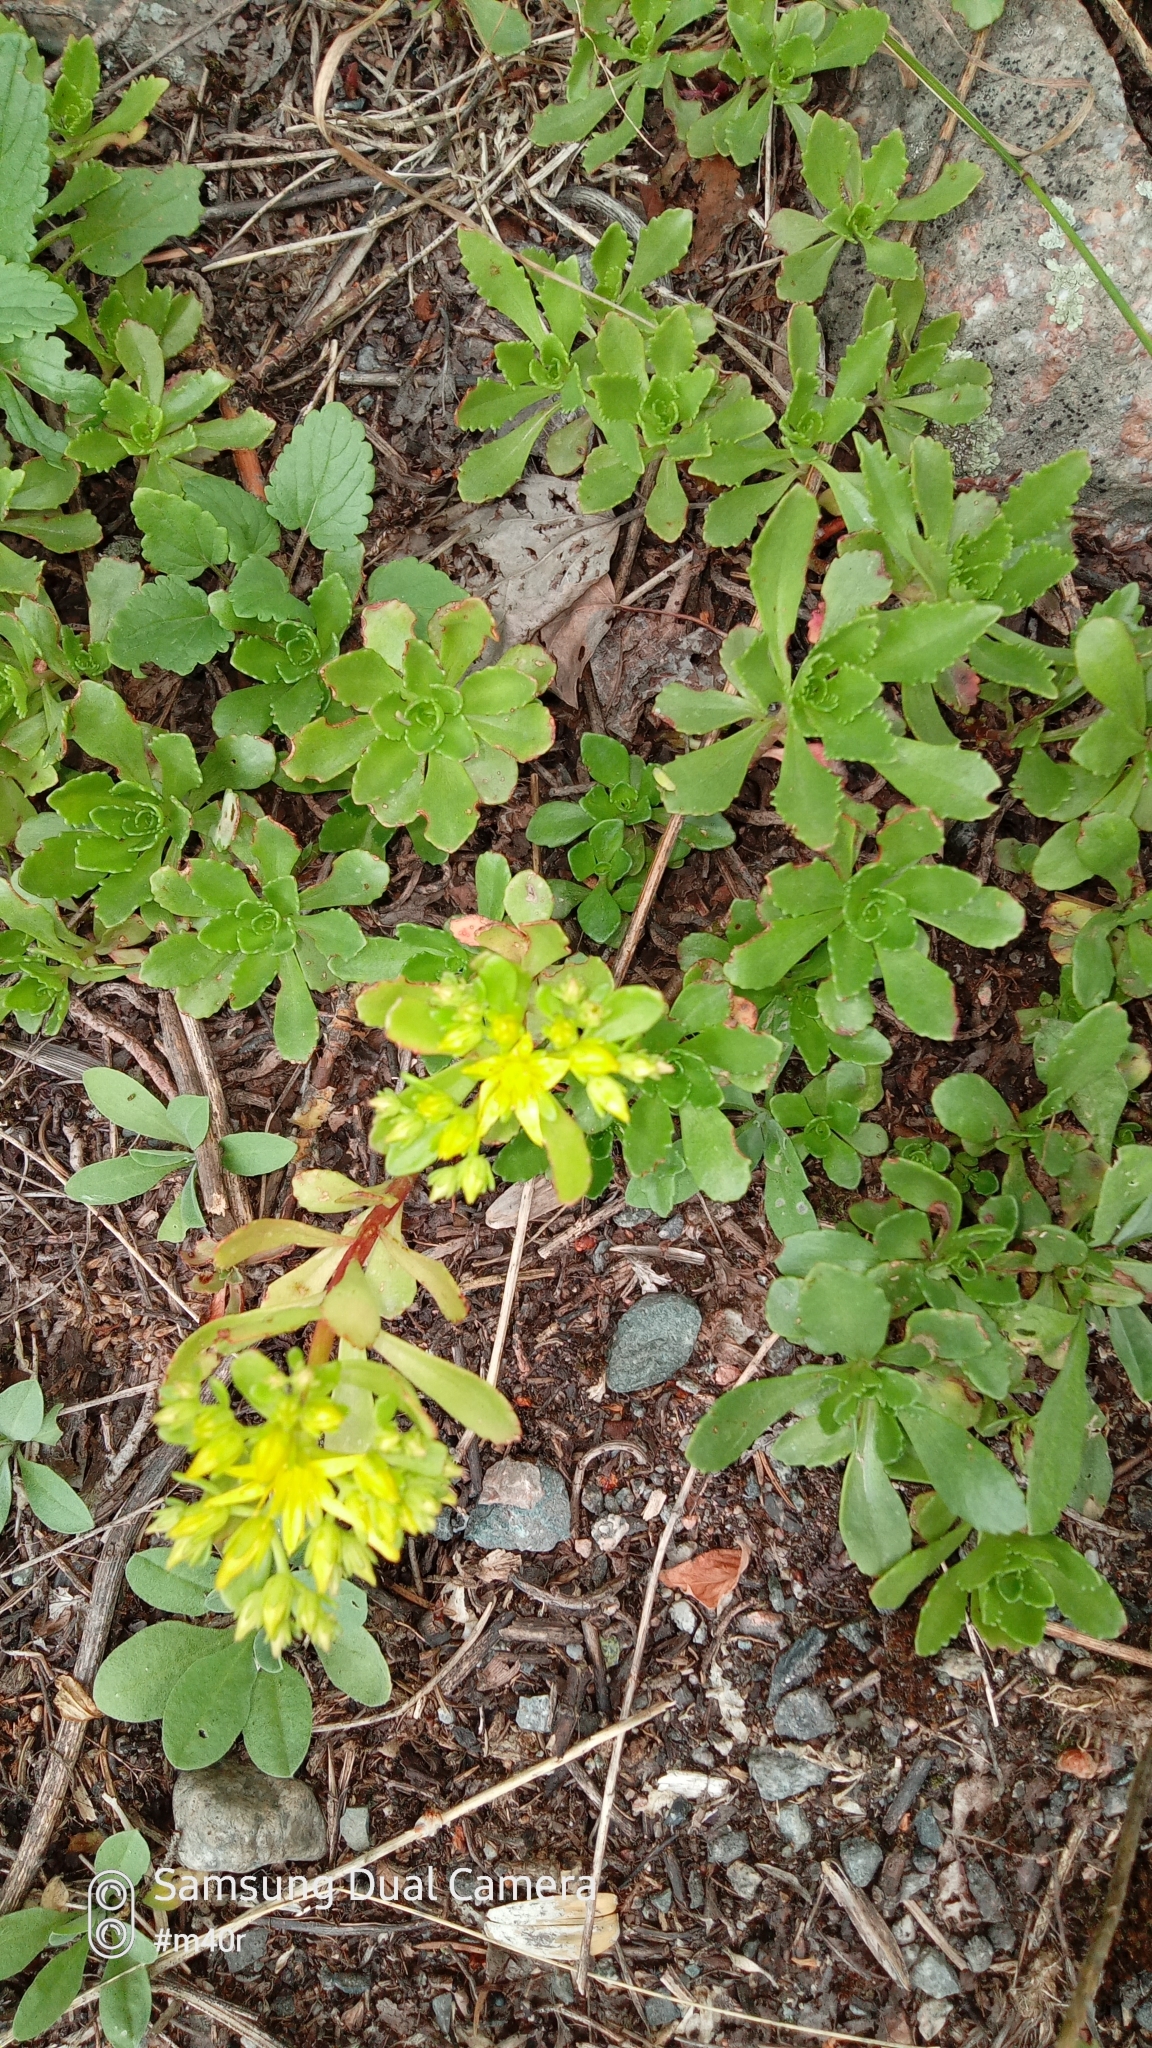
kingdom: Plantae
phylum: Tracheophyta
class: Magnoliopsida
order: Saxifragales
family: Crassulaceae
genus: Phedimus
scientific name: Phedimus hybridus
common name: Hybrid stonecrop
